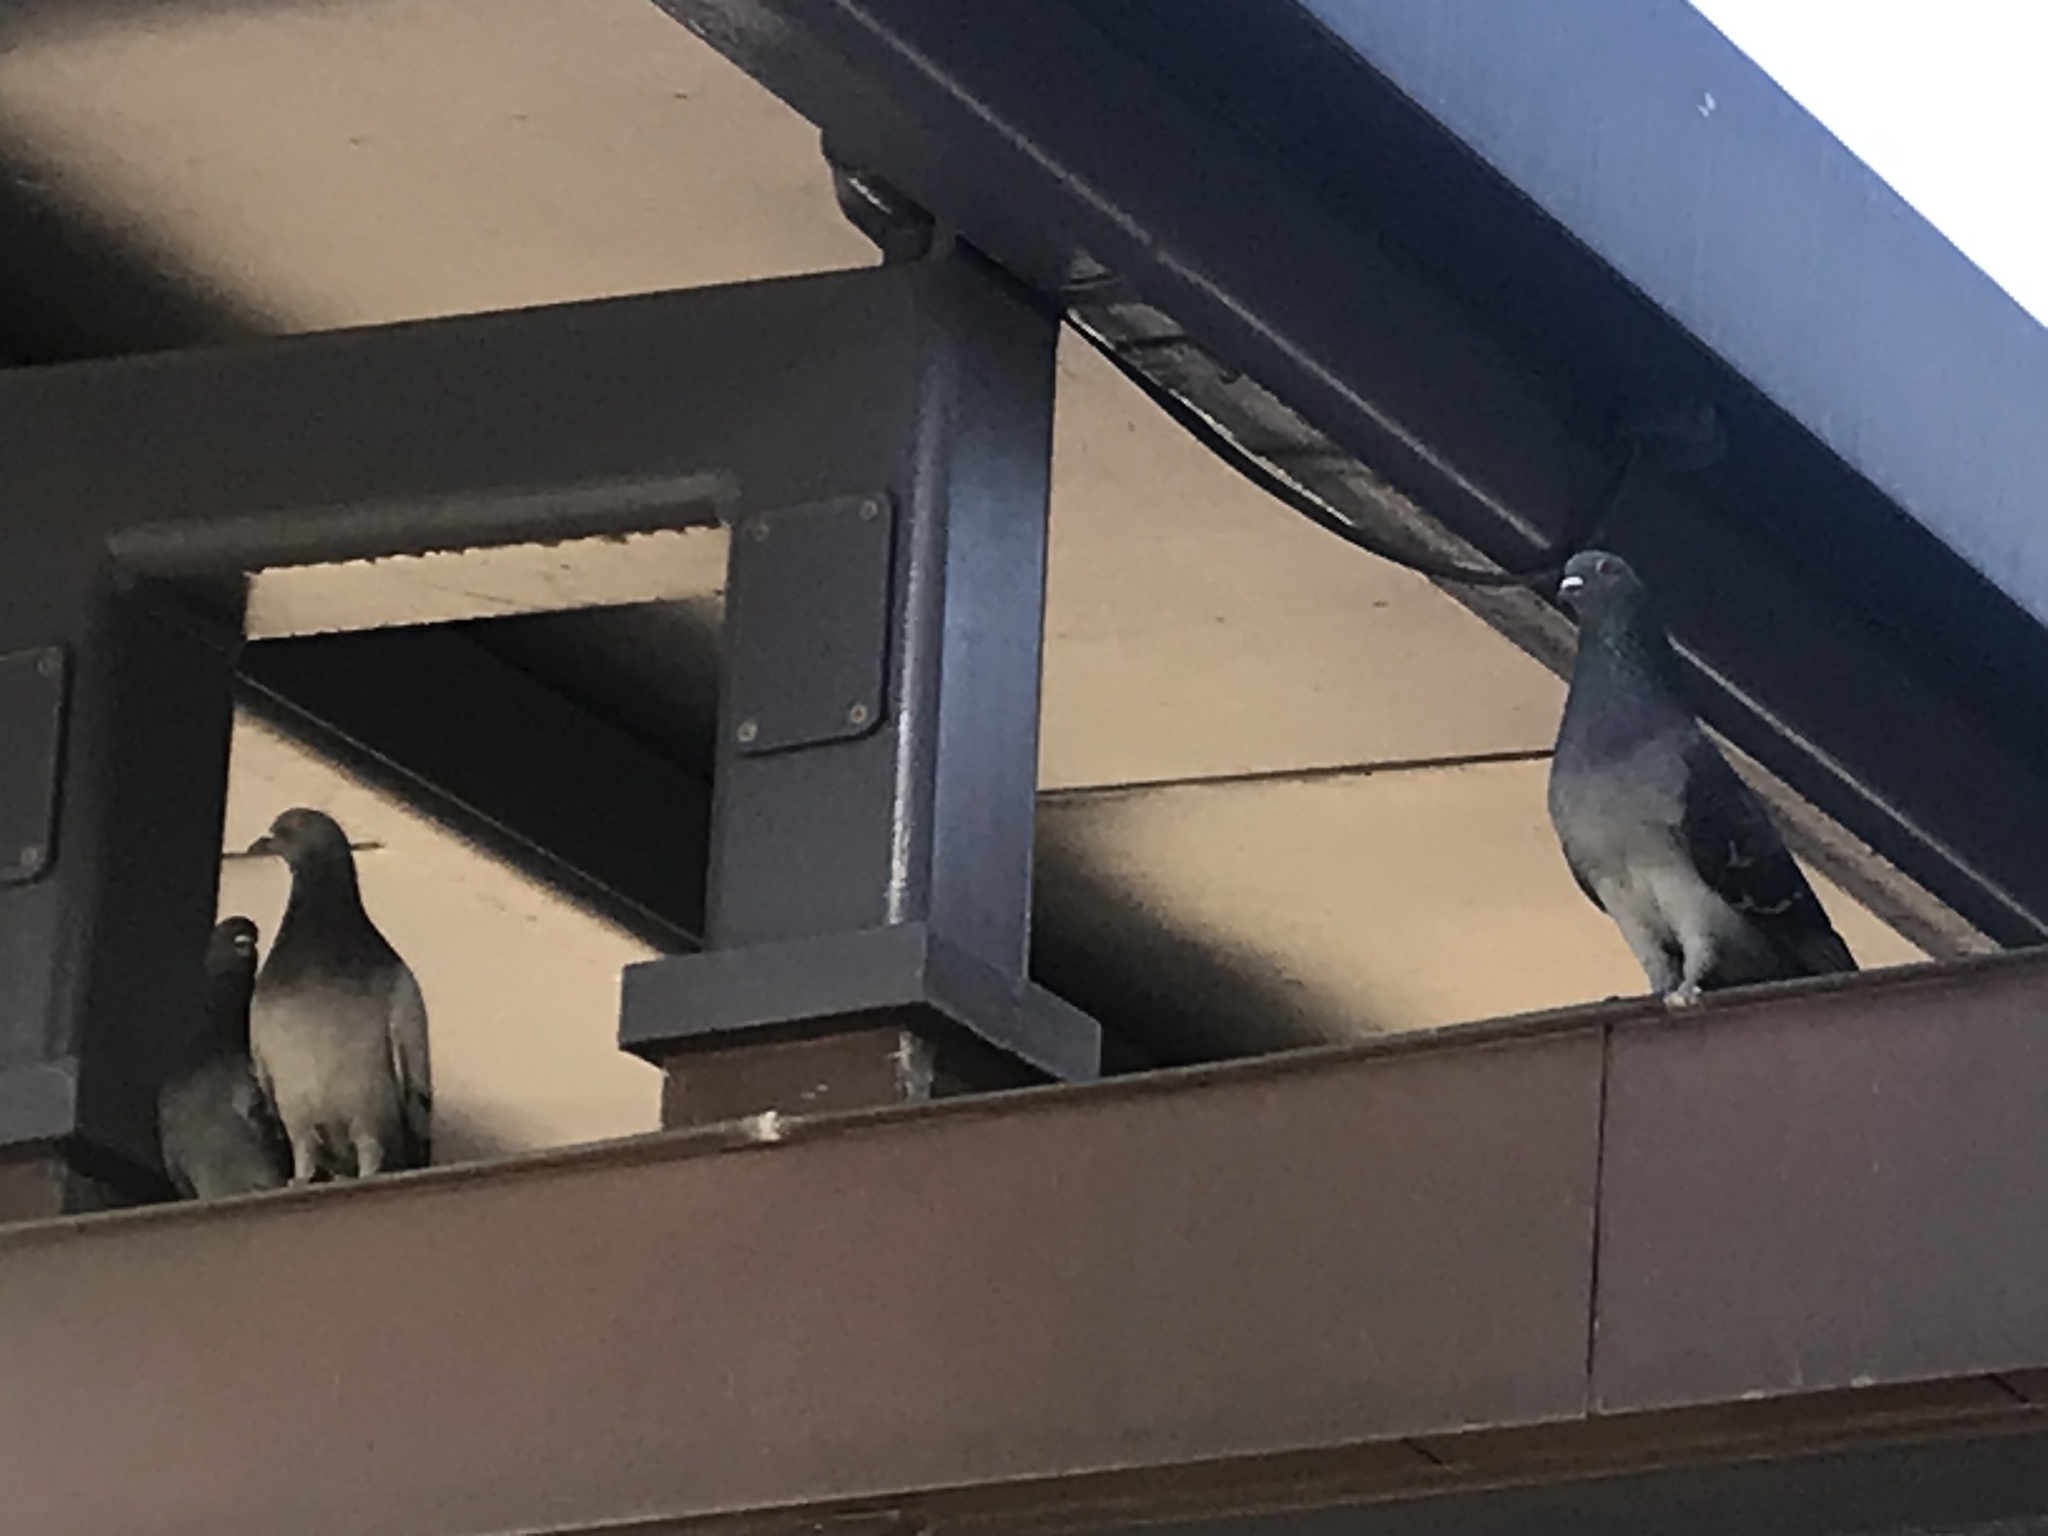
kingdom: Animalia
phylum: Chordata
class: Aves
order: Columbiformes
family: Columbidae
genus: Columba
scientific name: Columba livia
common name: Rock pigeon
